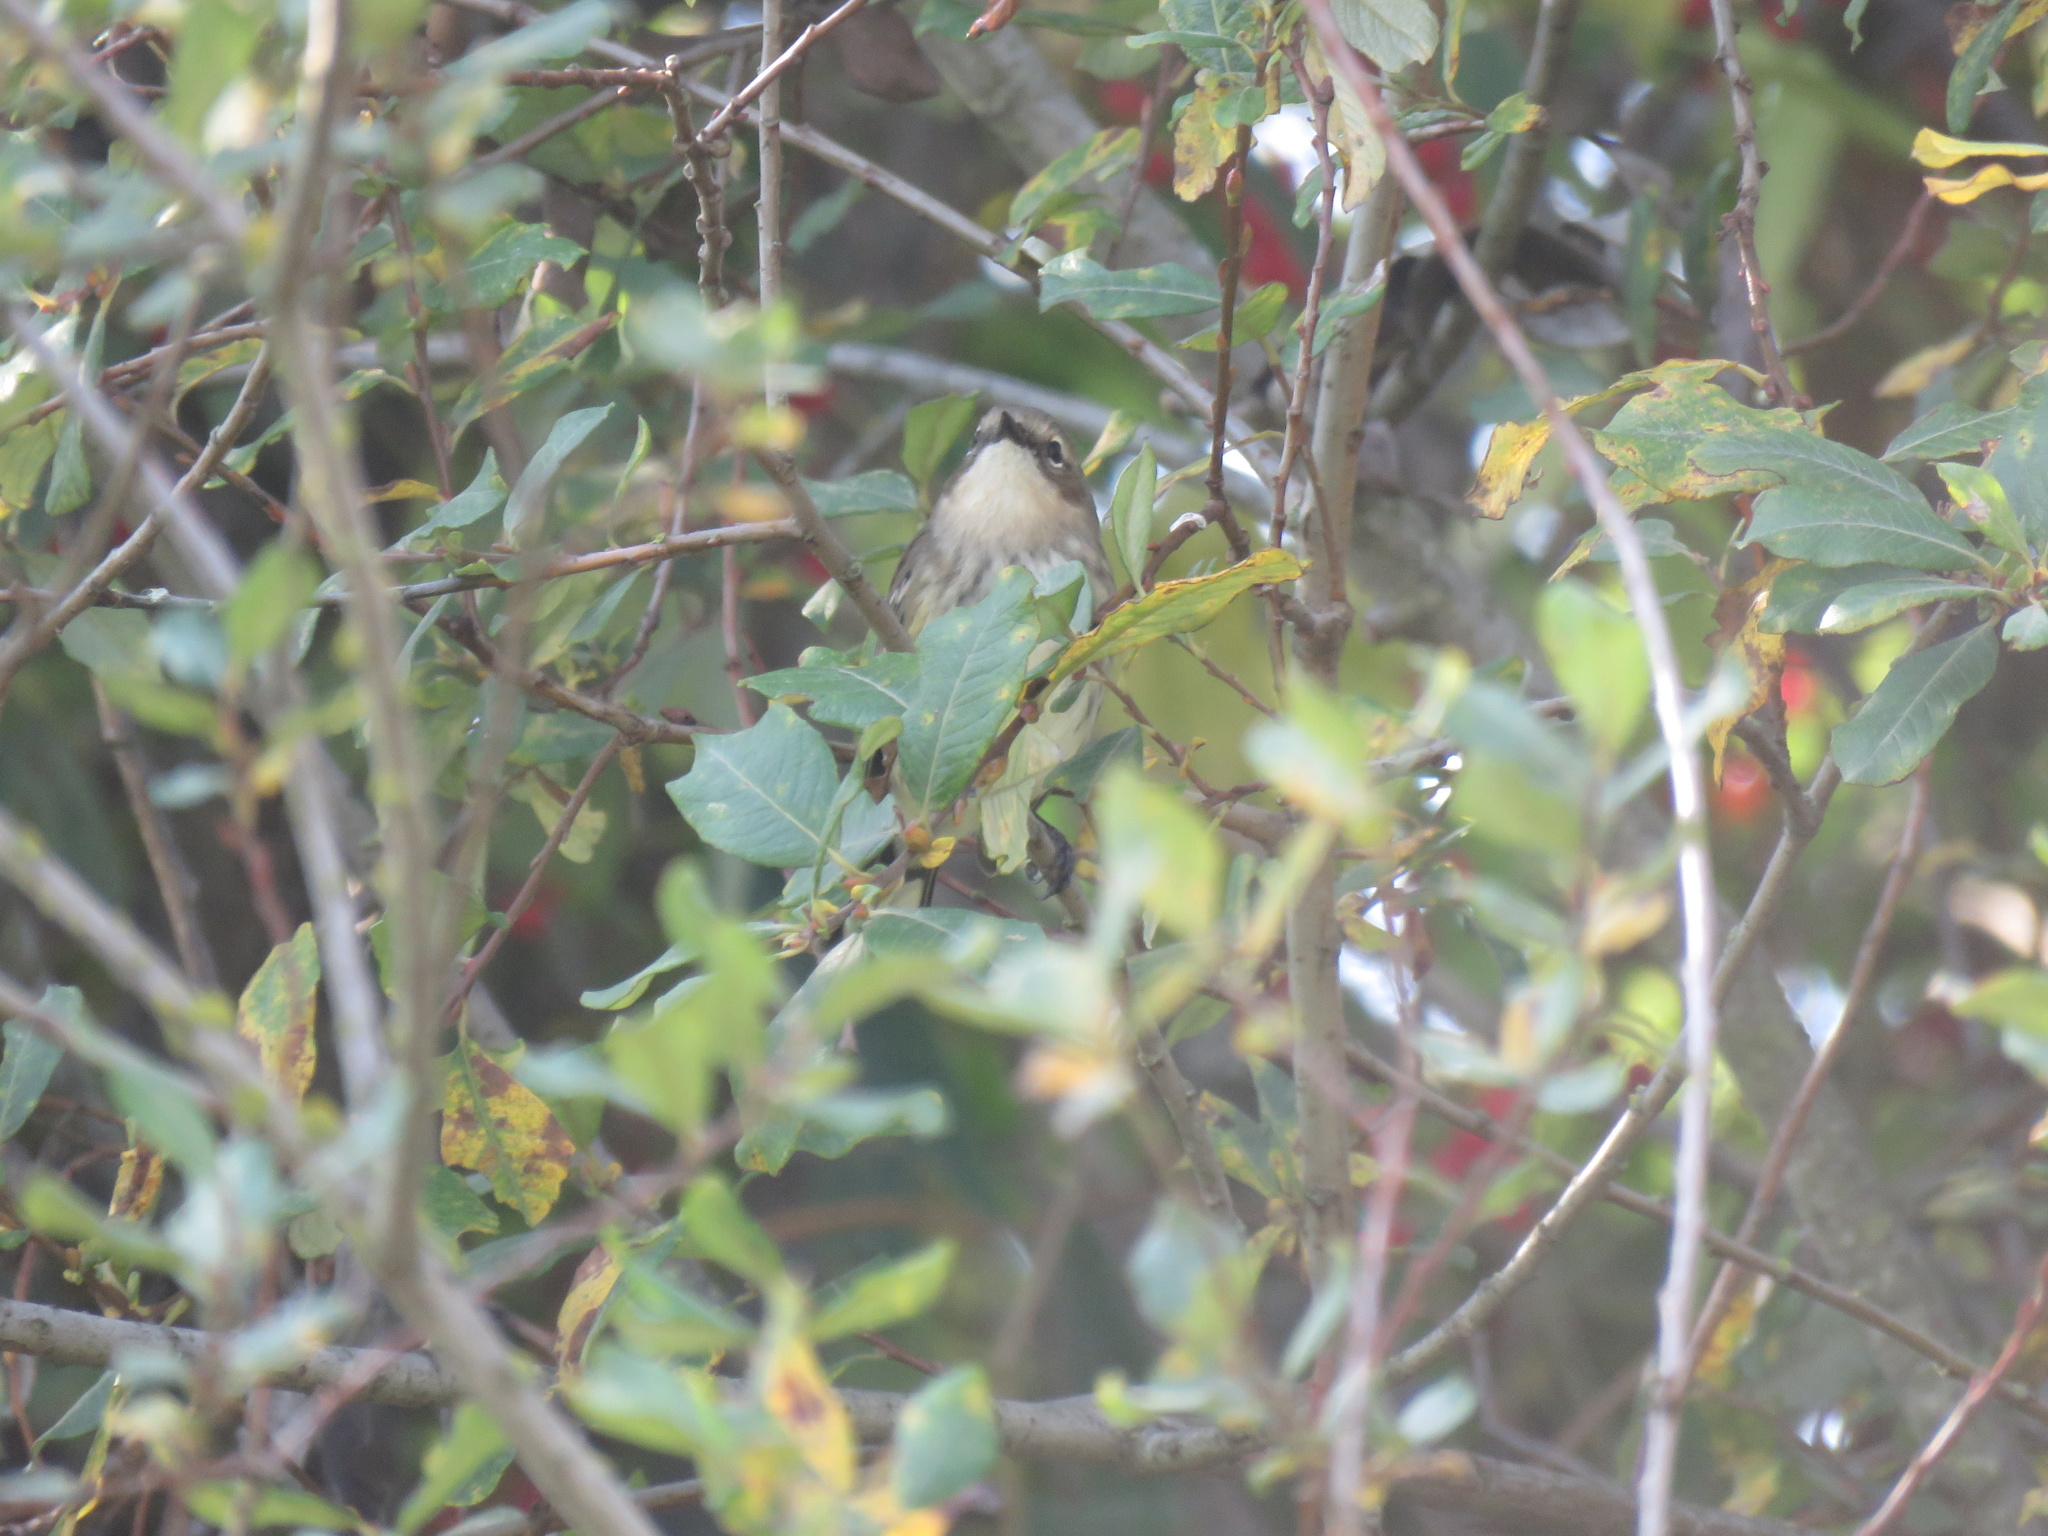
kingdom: Animalia
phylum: Chordata
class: Aves
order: Passeriformes
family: Parulidae
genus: Setophaga
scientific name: Setophaga coronata
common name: Myrtle warbler
